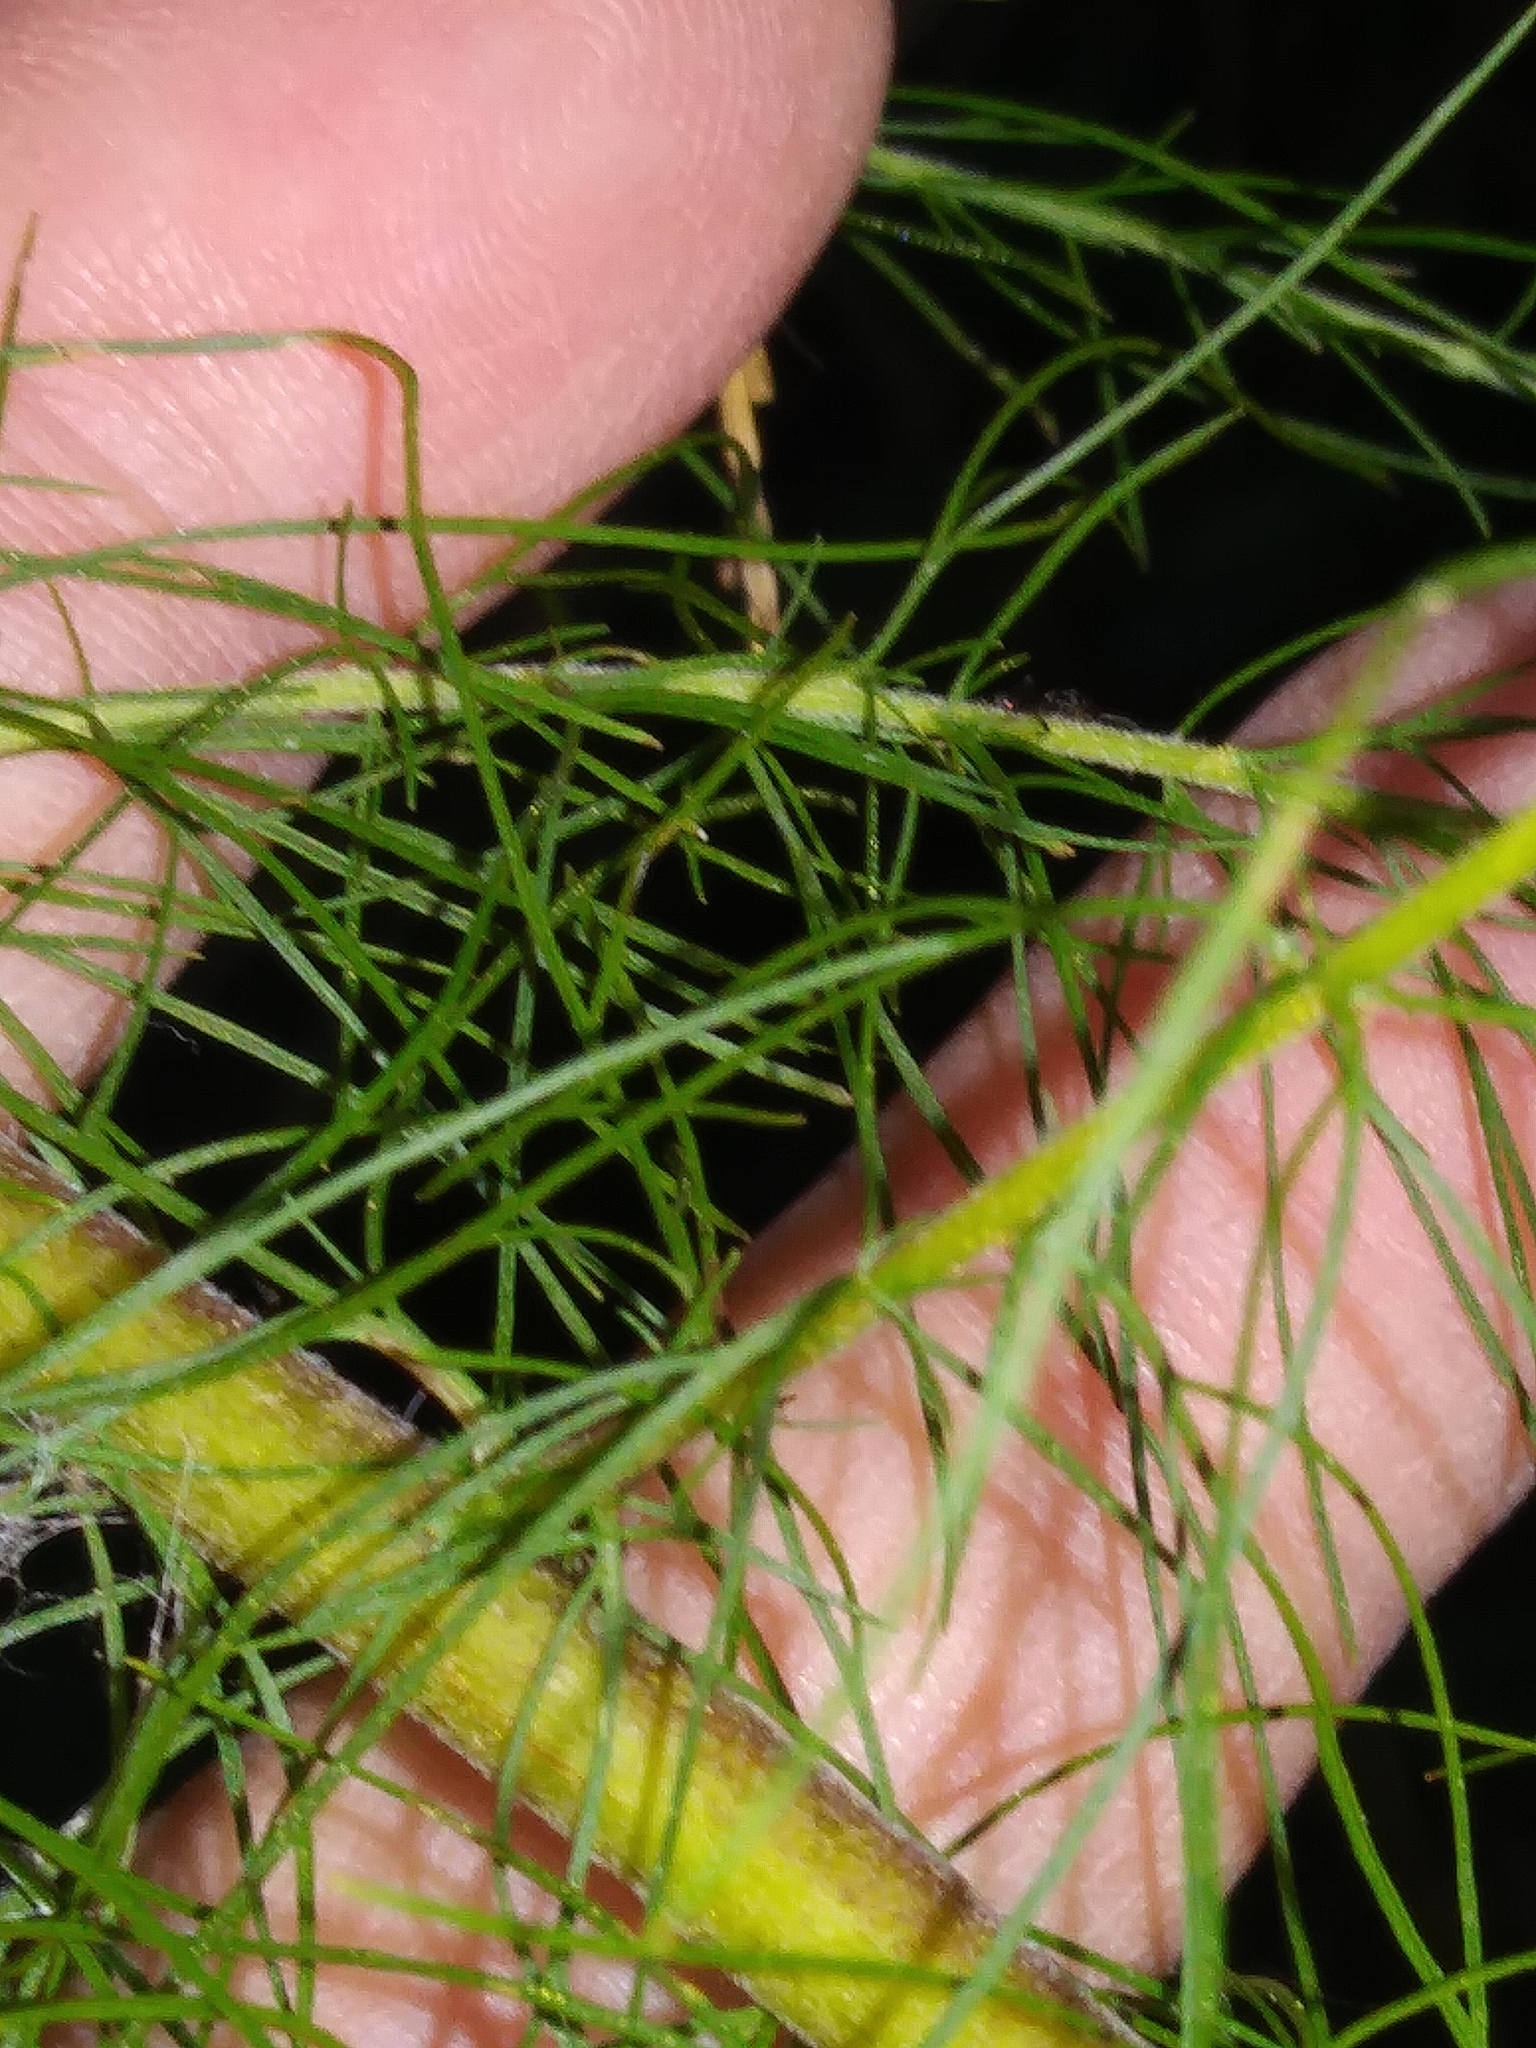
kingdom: Plantae
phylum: Tracheophyta
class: Magnoliopsida
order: Asterales
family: Asteraceae
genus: Eupatorium
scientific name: Eupatorium capillifolium
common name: Dog-fennel
